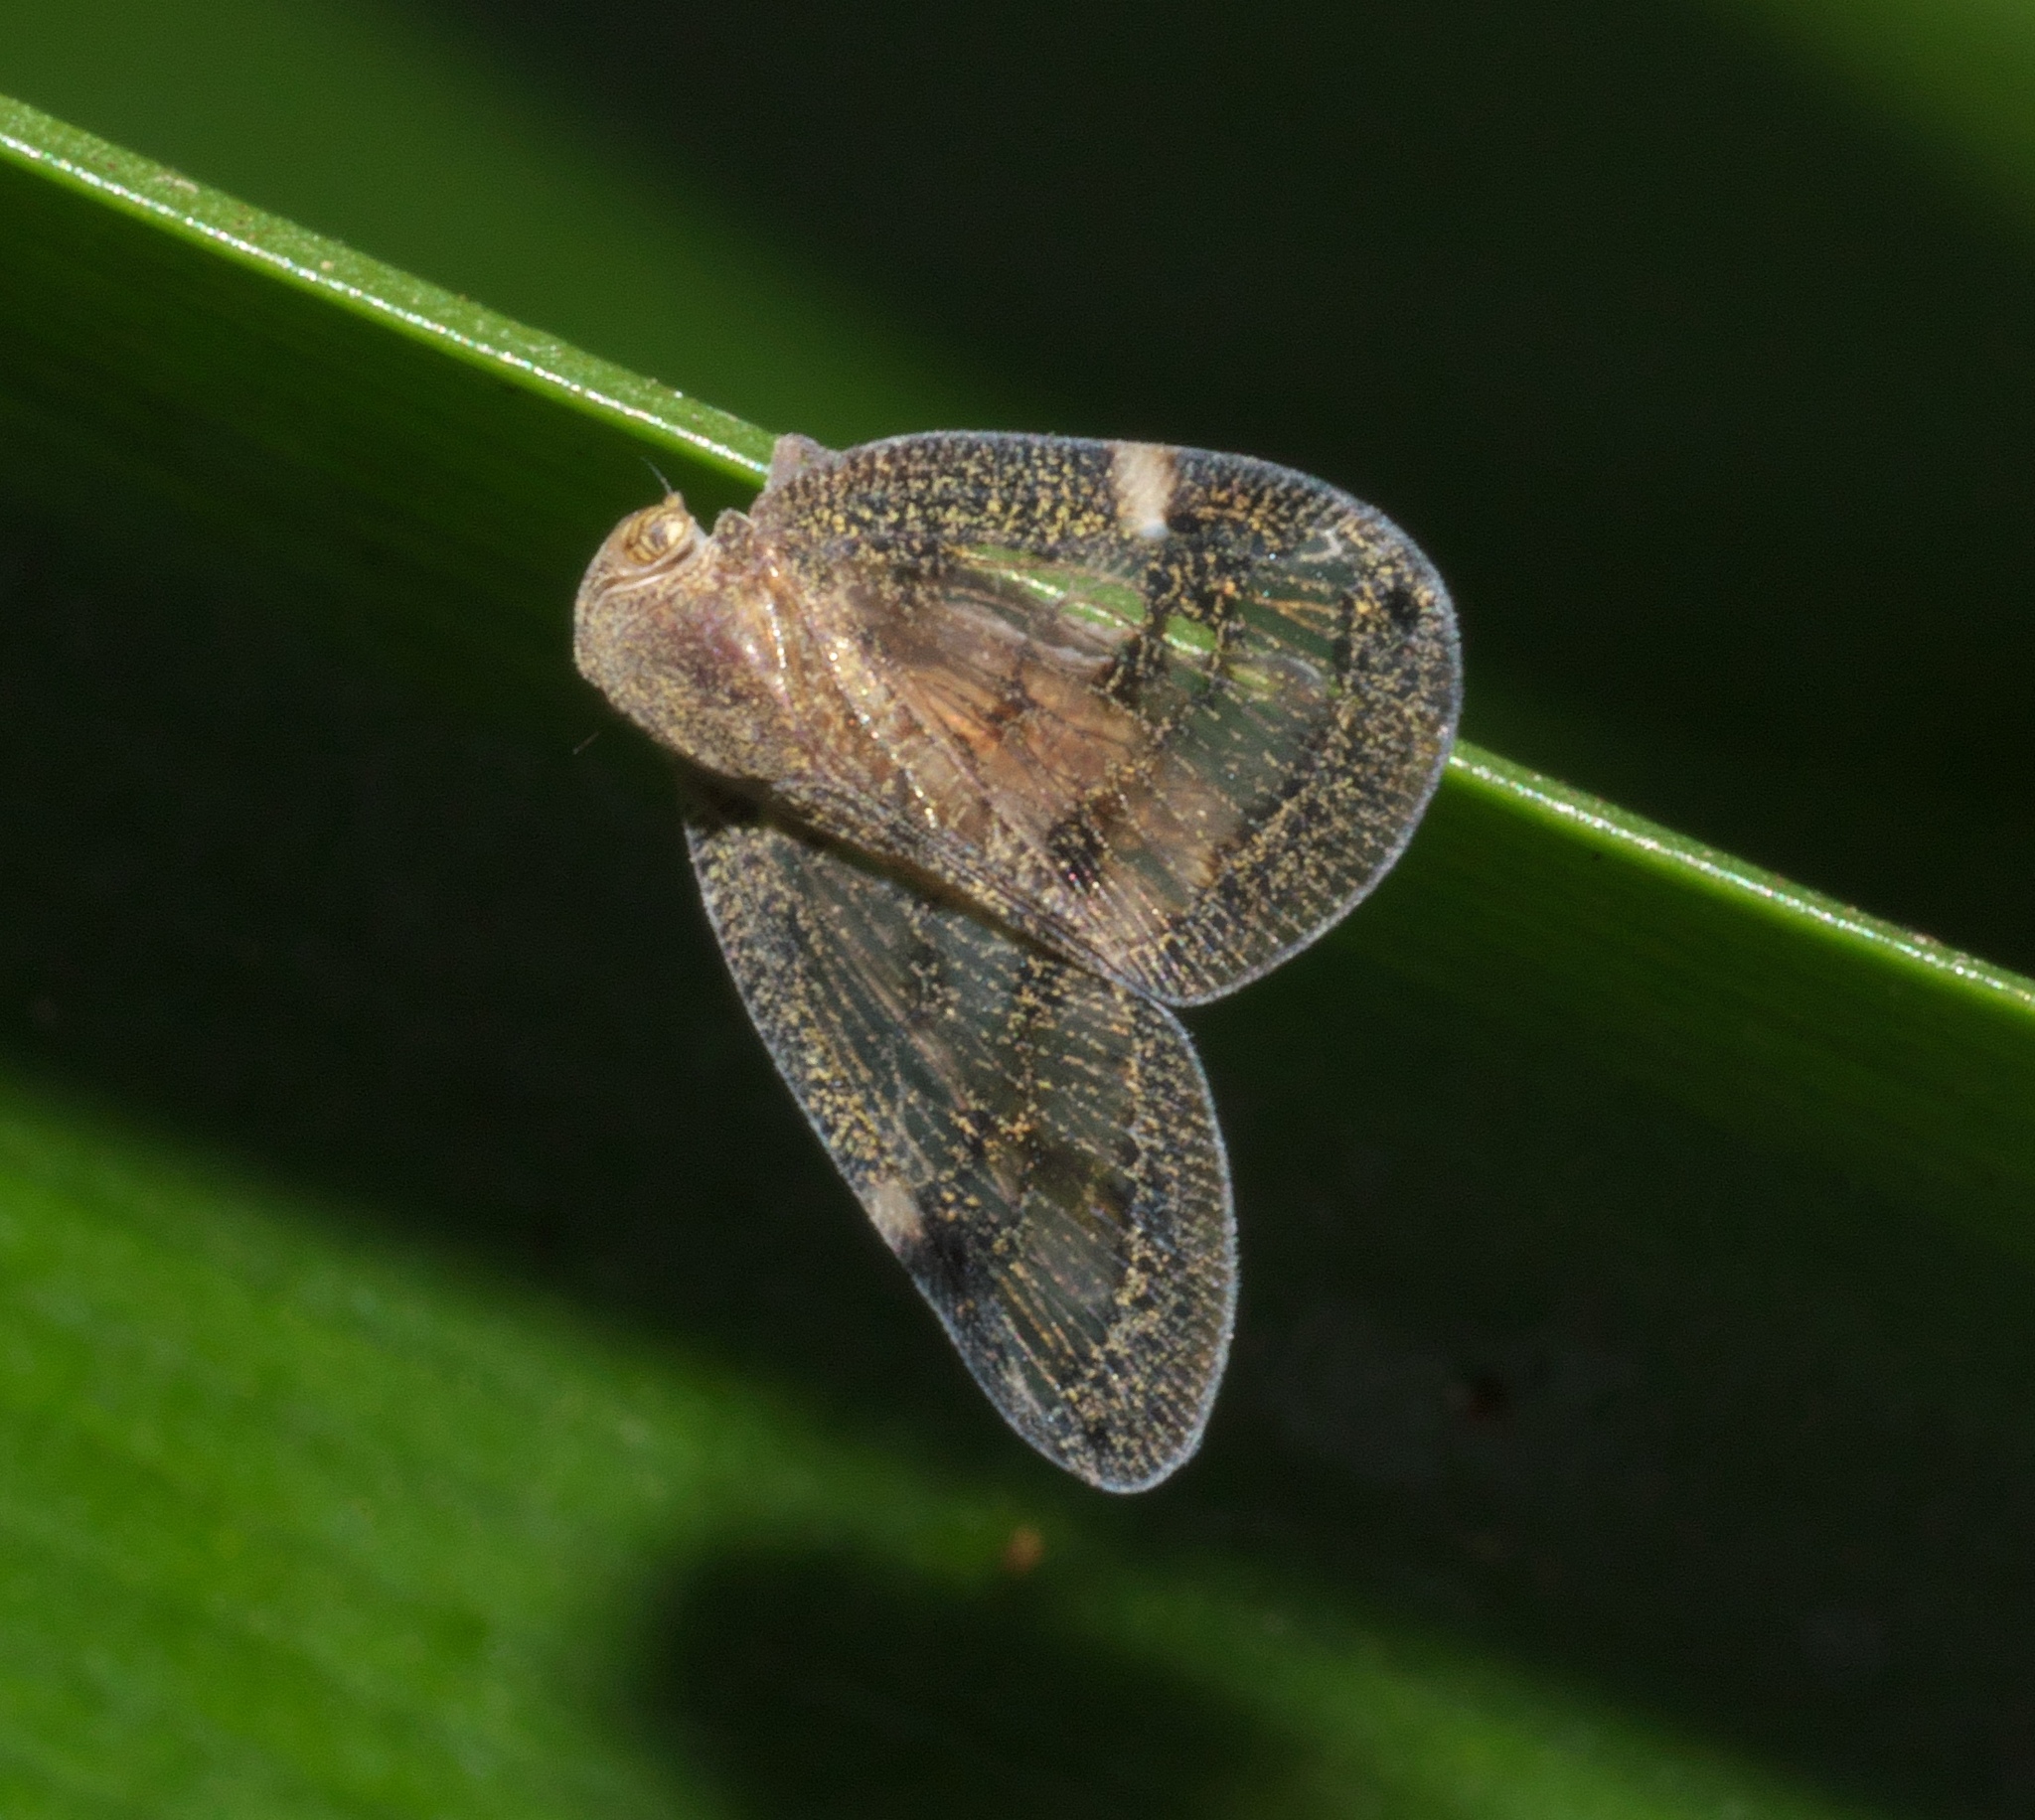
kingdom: Animalia
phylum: Arthropoda
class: Insecta
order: Hemiptera
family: Ricaniidae
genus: Scolypopa
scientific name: Scolypopa australis
